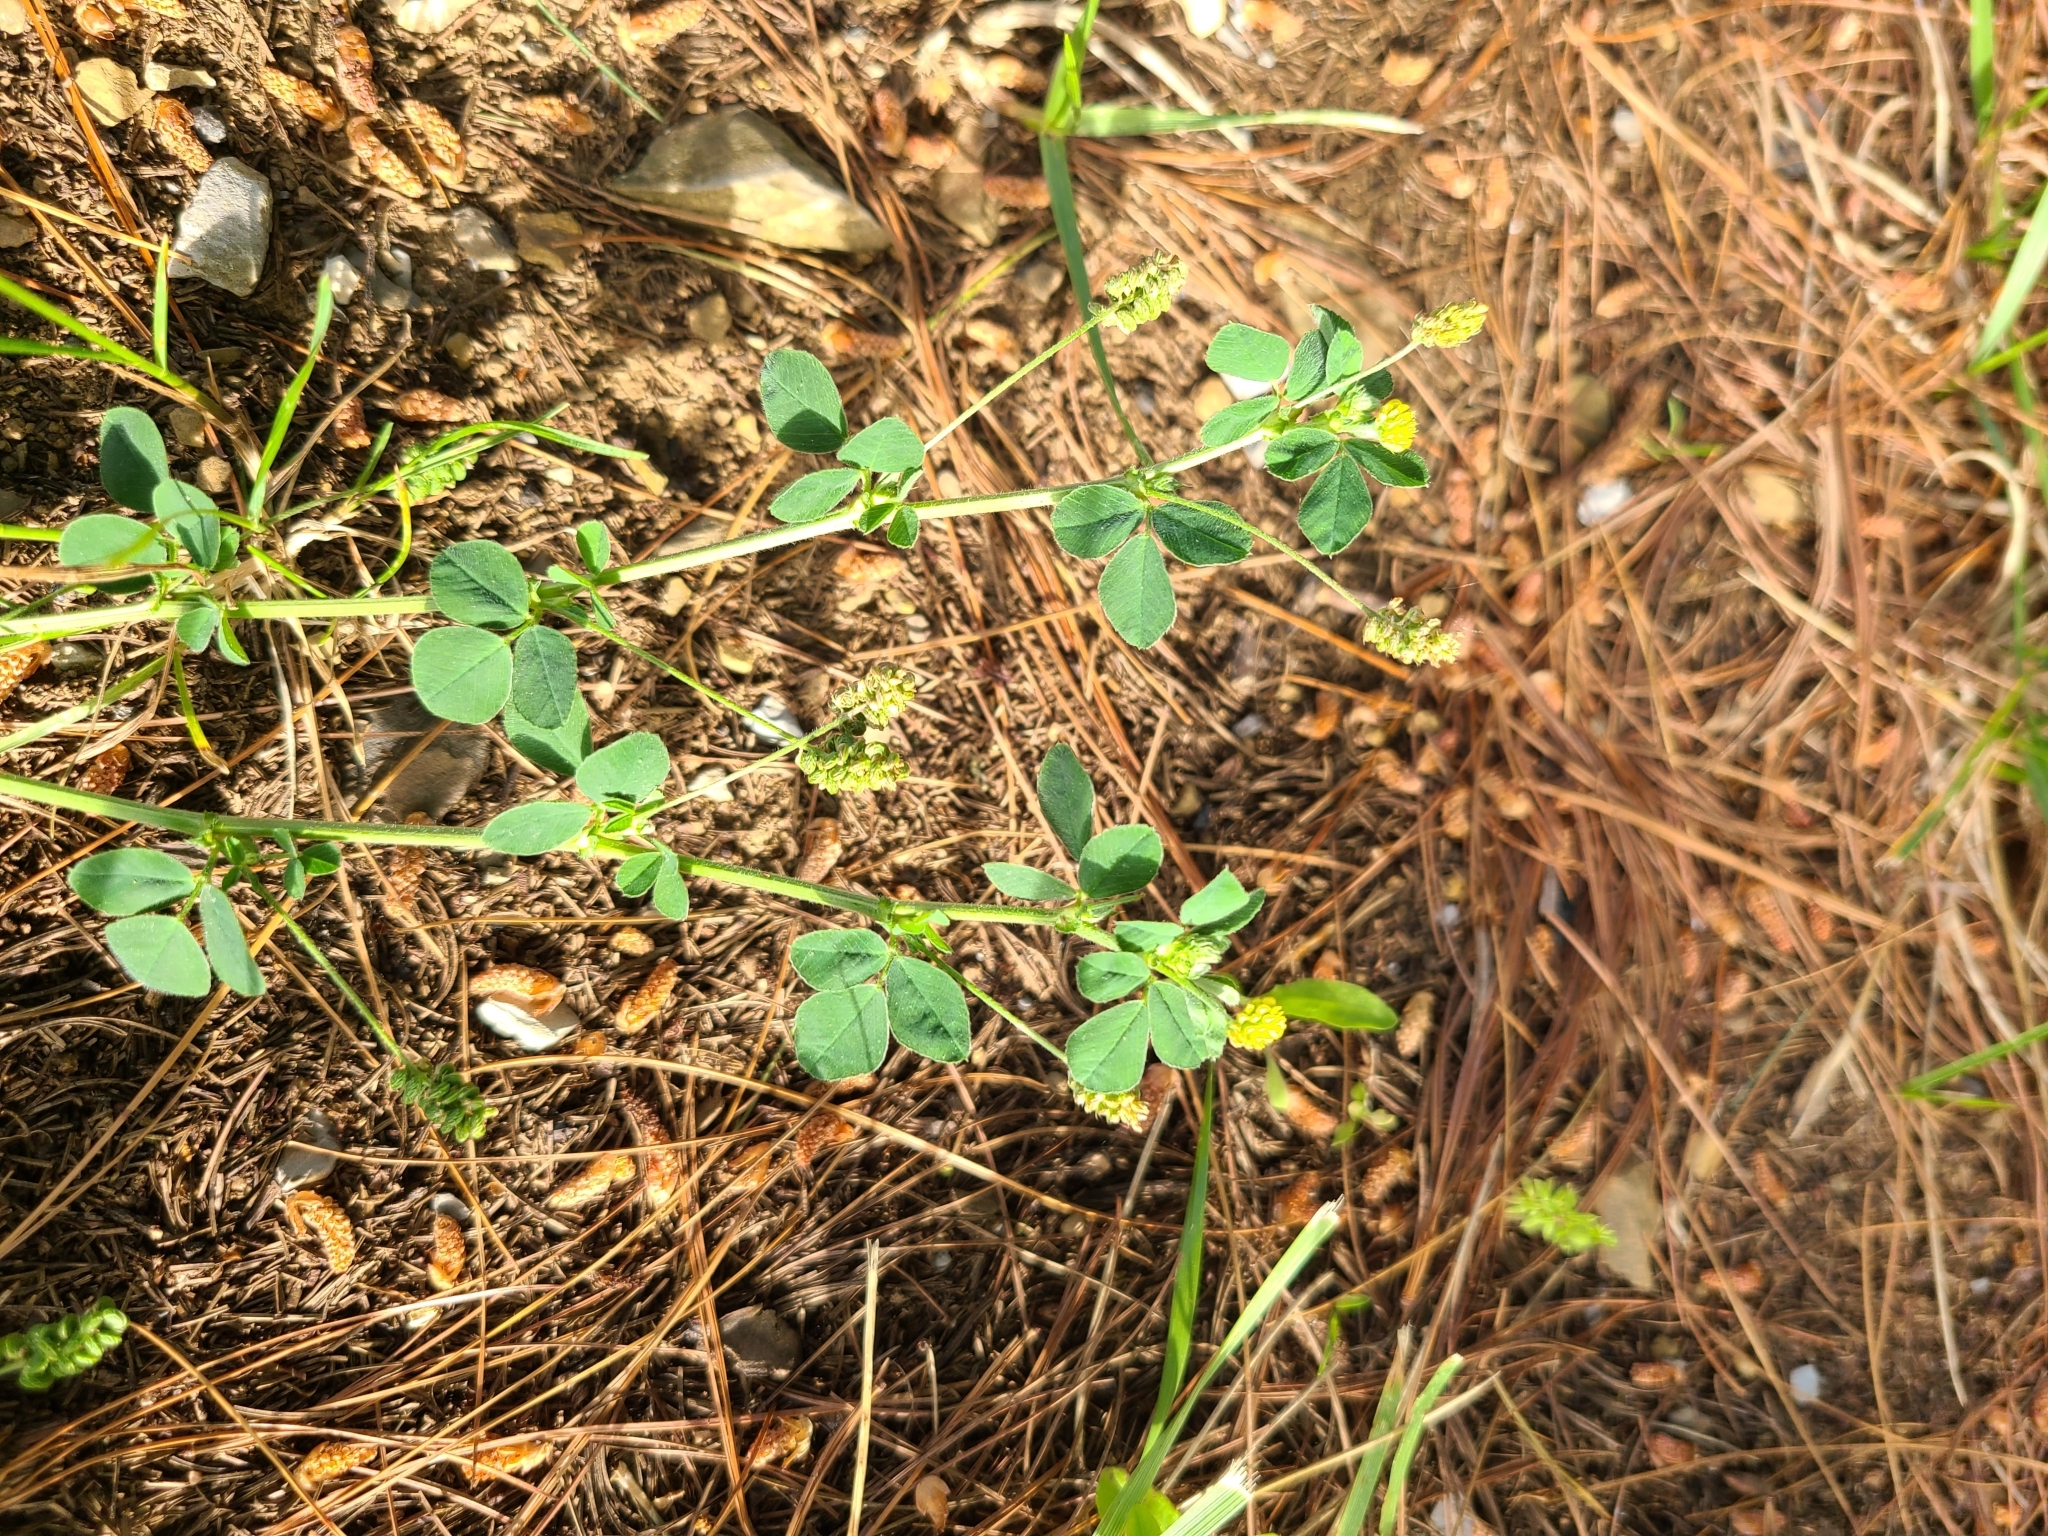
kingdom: Plantae
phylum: Tracheophyta
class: Magnoliopsida
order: Fabales
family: Fabaceae
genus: Medicago
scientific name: Medicago lupulina
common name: Black medick
